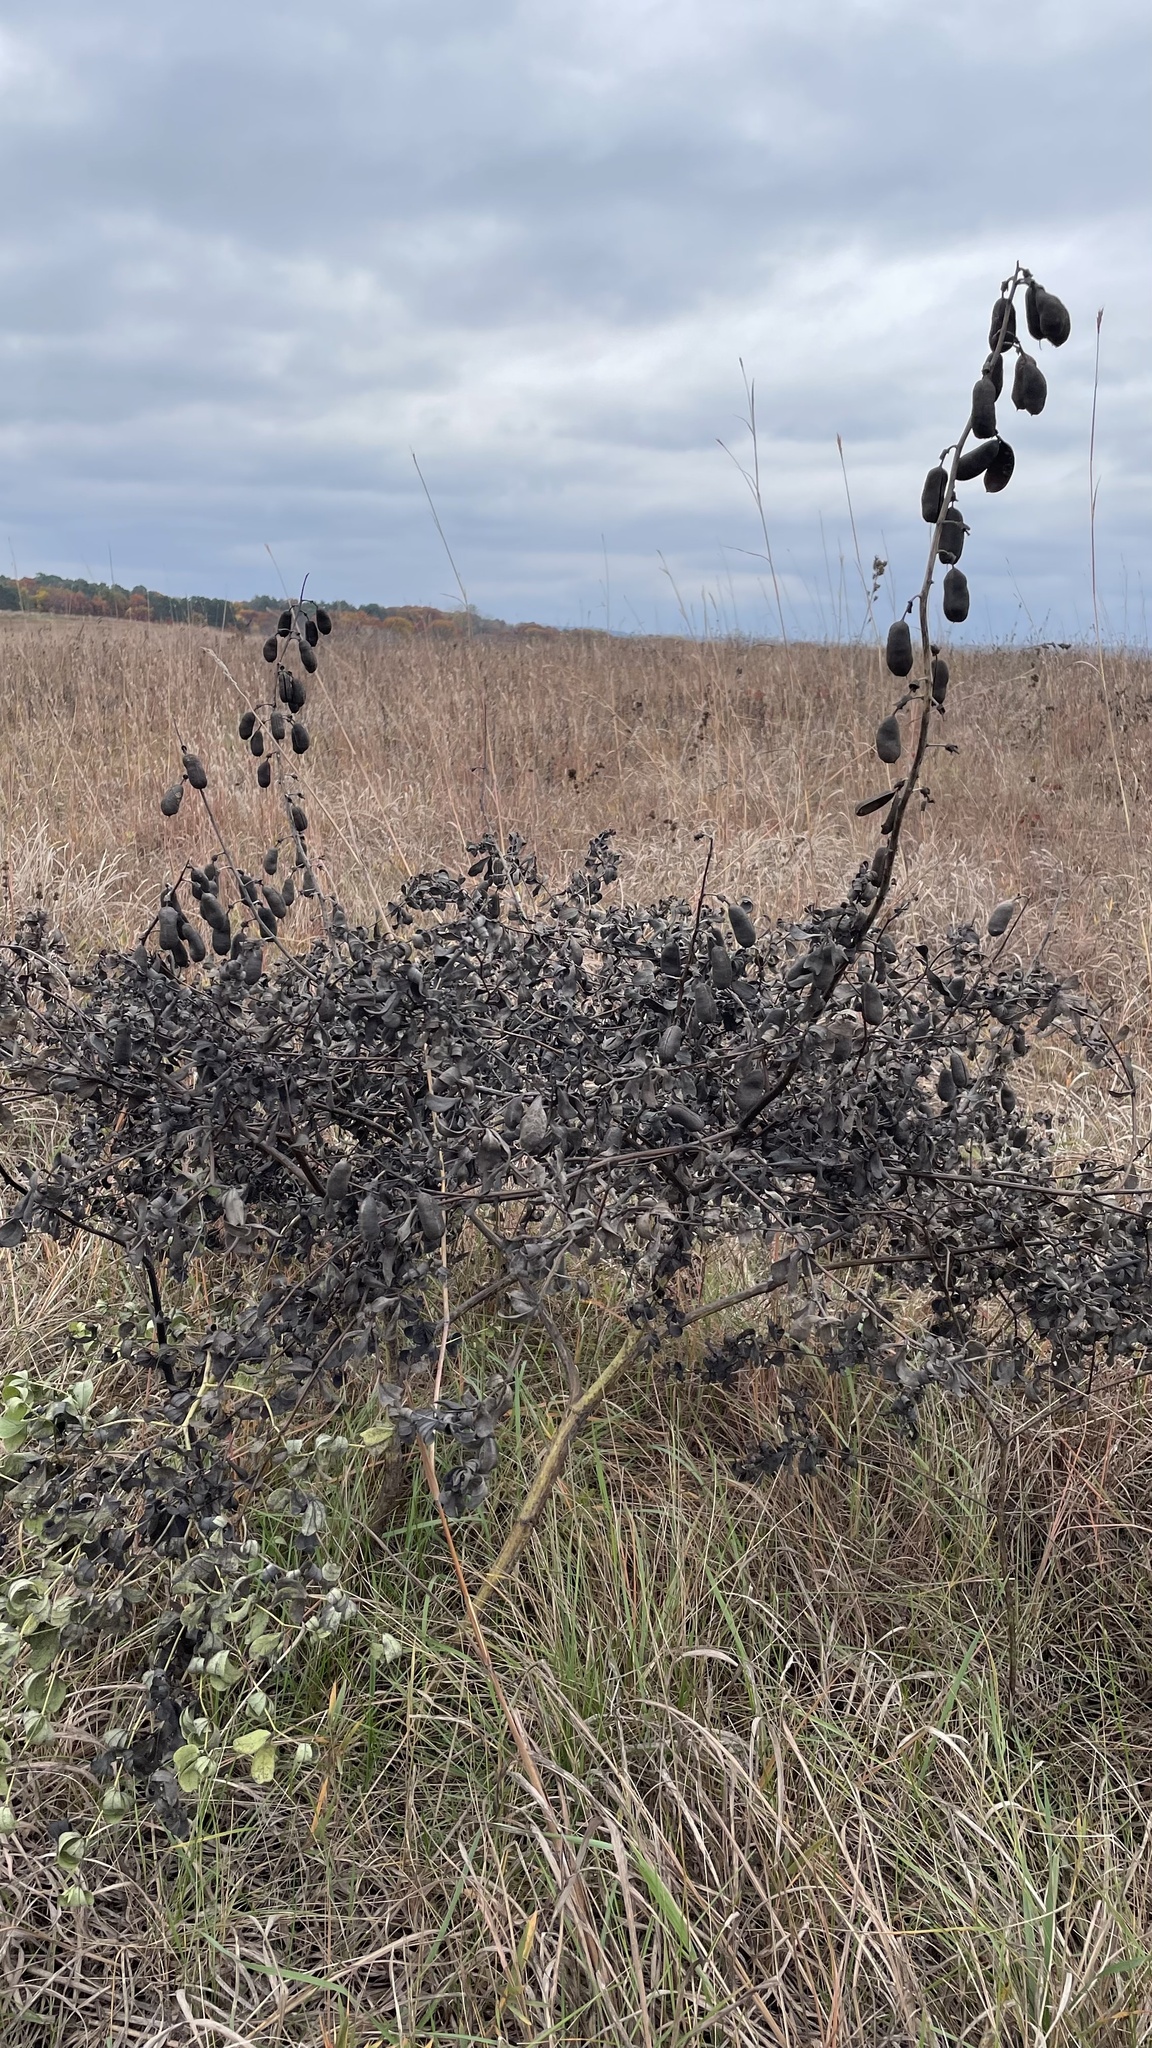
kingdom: Plantae
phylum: Tracheophyta
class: Magnoliopsida
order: Fabales
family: Fabaceae
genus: Baptisia
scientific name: Baptisia alba
